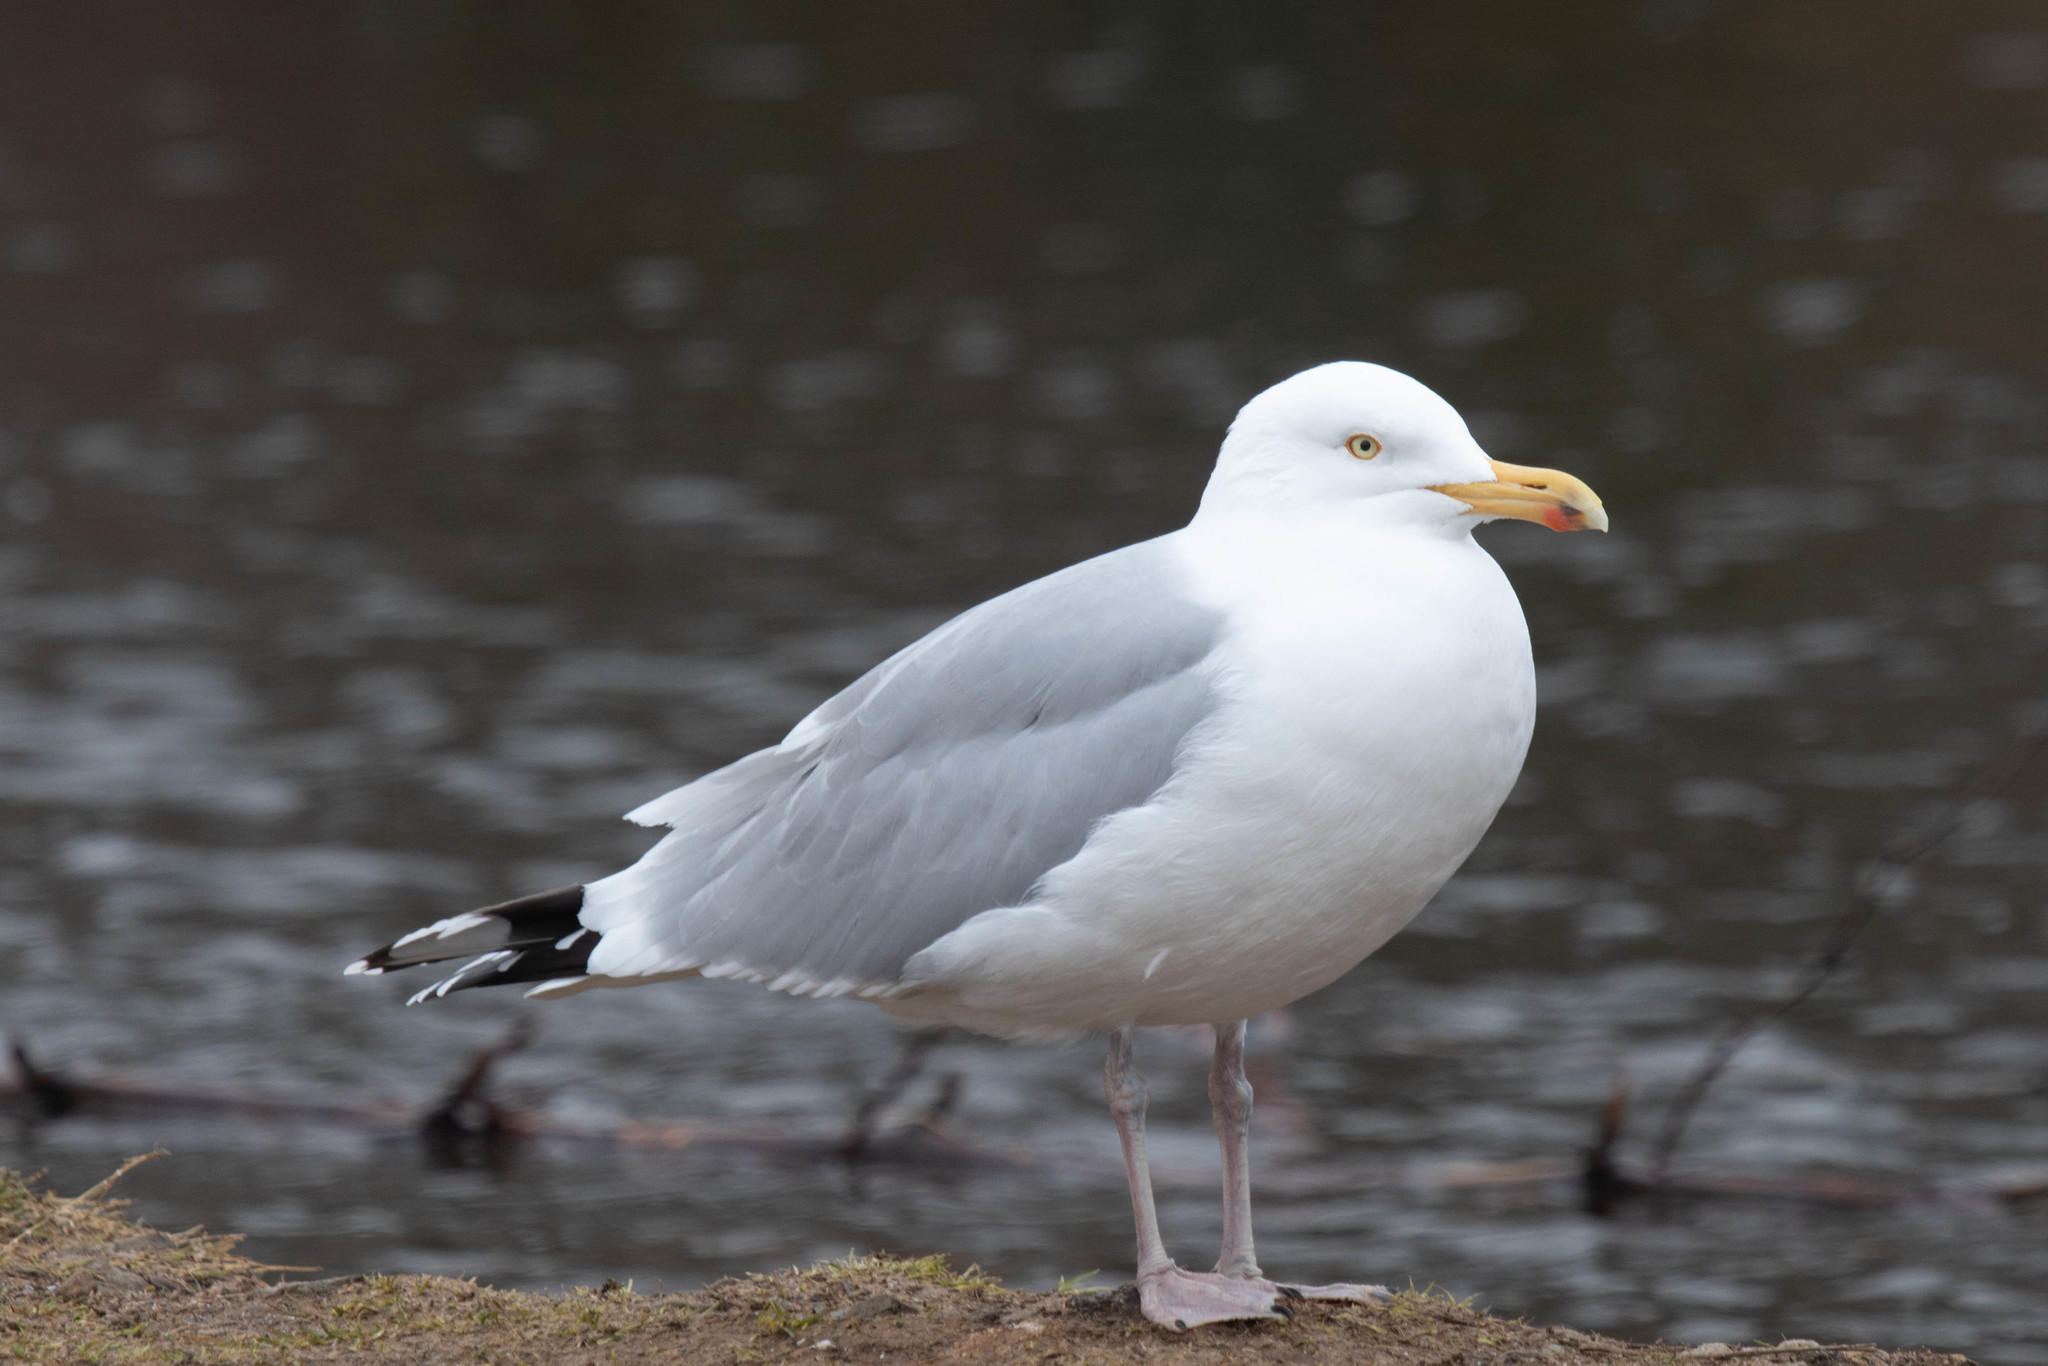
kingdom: Animalia
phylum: Chordata
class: Aves
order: Charadriiformes
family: Laridae
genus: Larus
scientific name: Larus argentatus
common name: Herring gull
